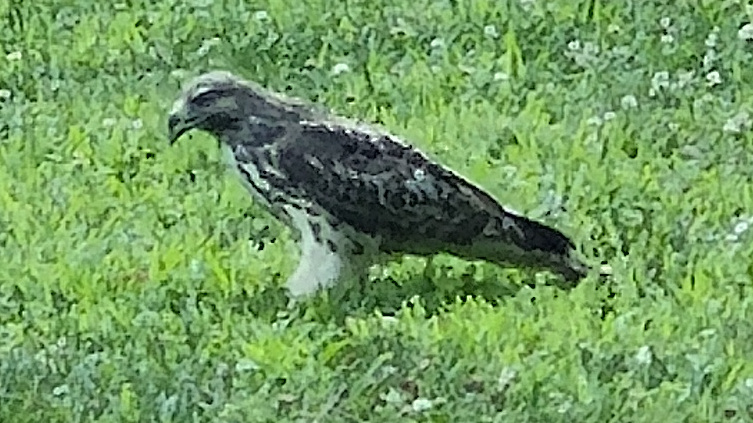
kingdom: Animalia
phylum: Chordata
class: Aves
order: Accipitriformes
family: Accipitridae
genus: Buteo
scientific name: Buteo lineatus
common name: Red-shouldered hawk
